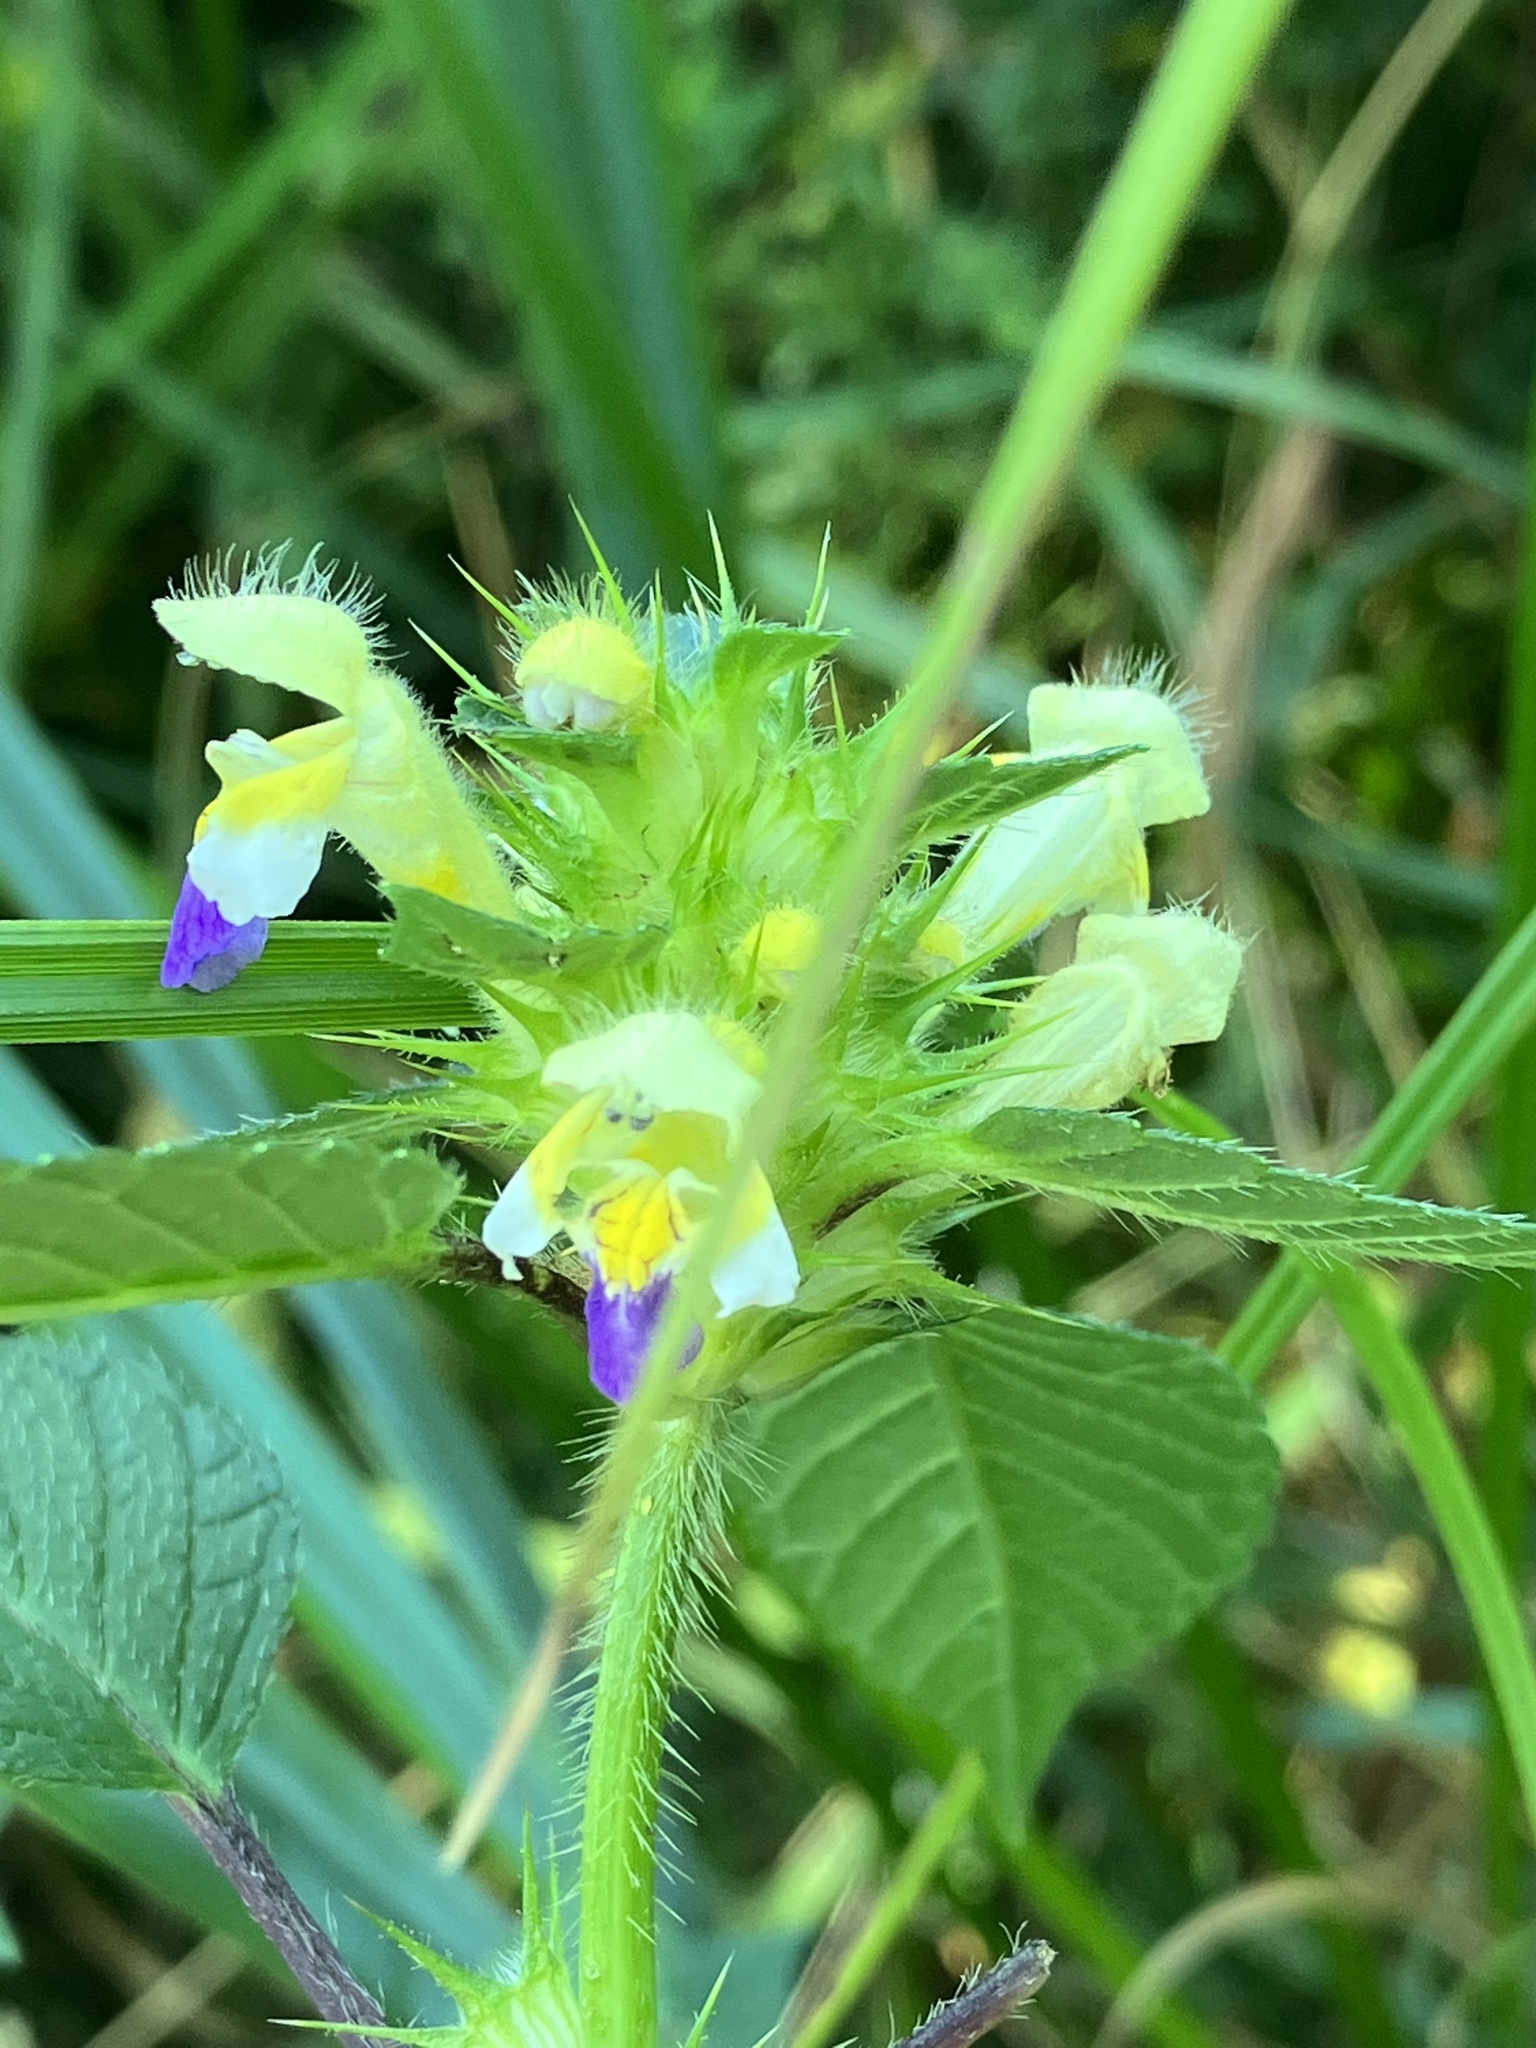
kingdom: Plantae
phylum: Tracheophyta
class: Magnoliopsida
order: Lamiales
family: Lamiaceae
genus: Galeopsis
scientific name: Galeopsis speciosa
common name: Large-flowered hemp-nettle
